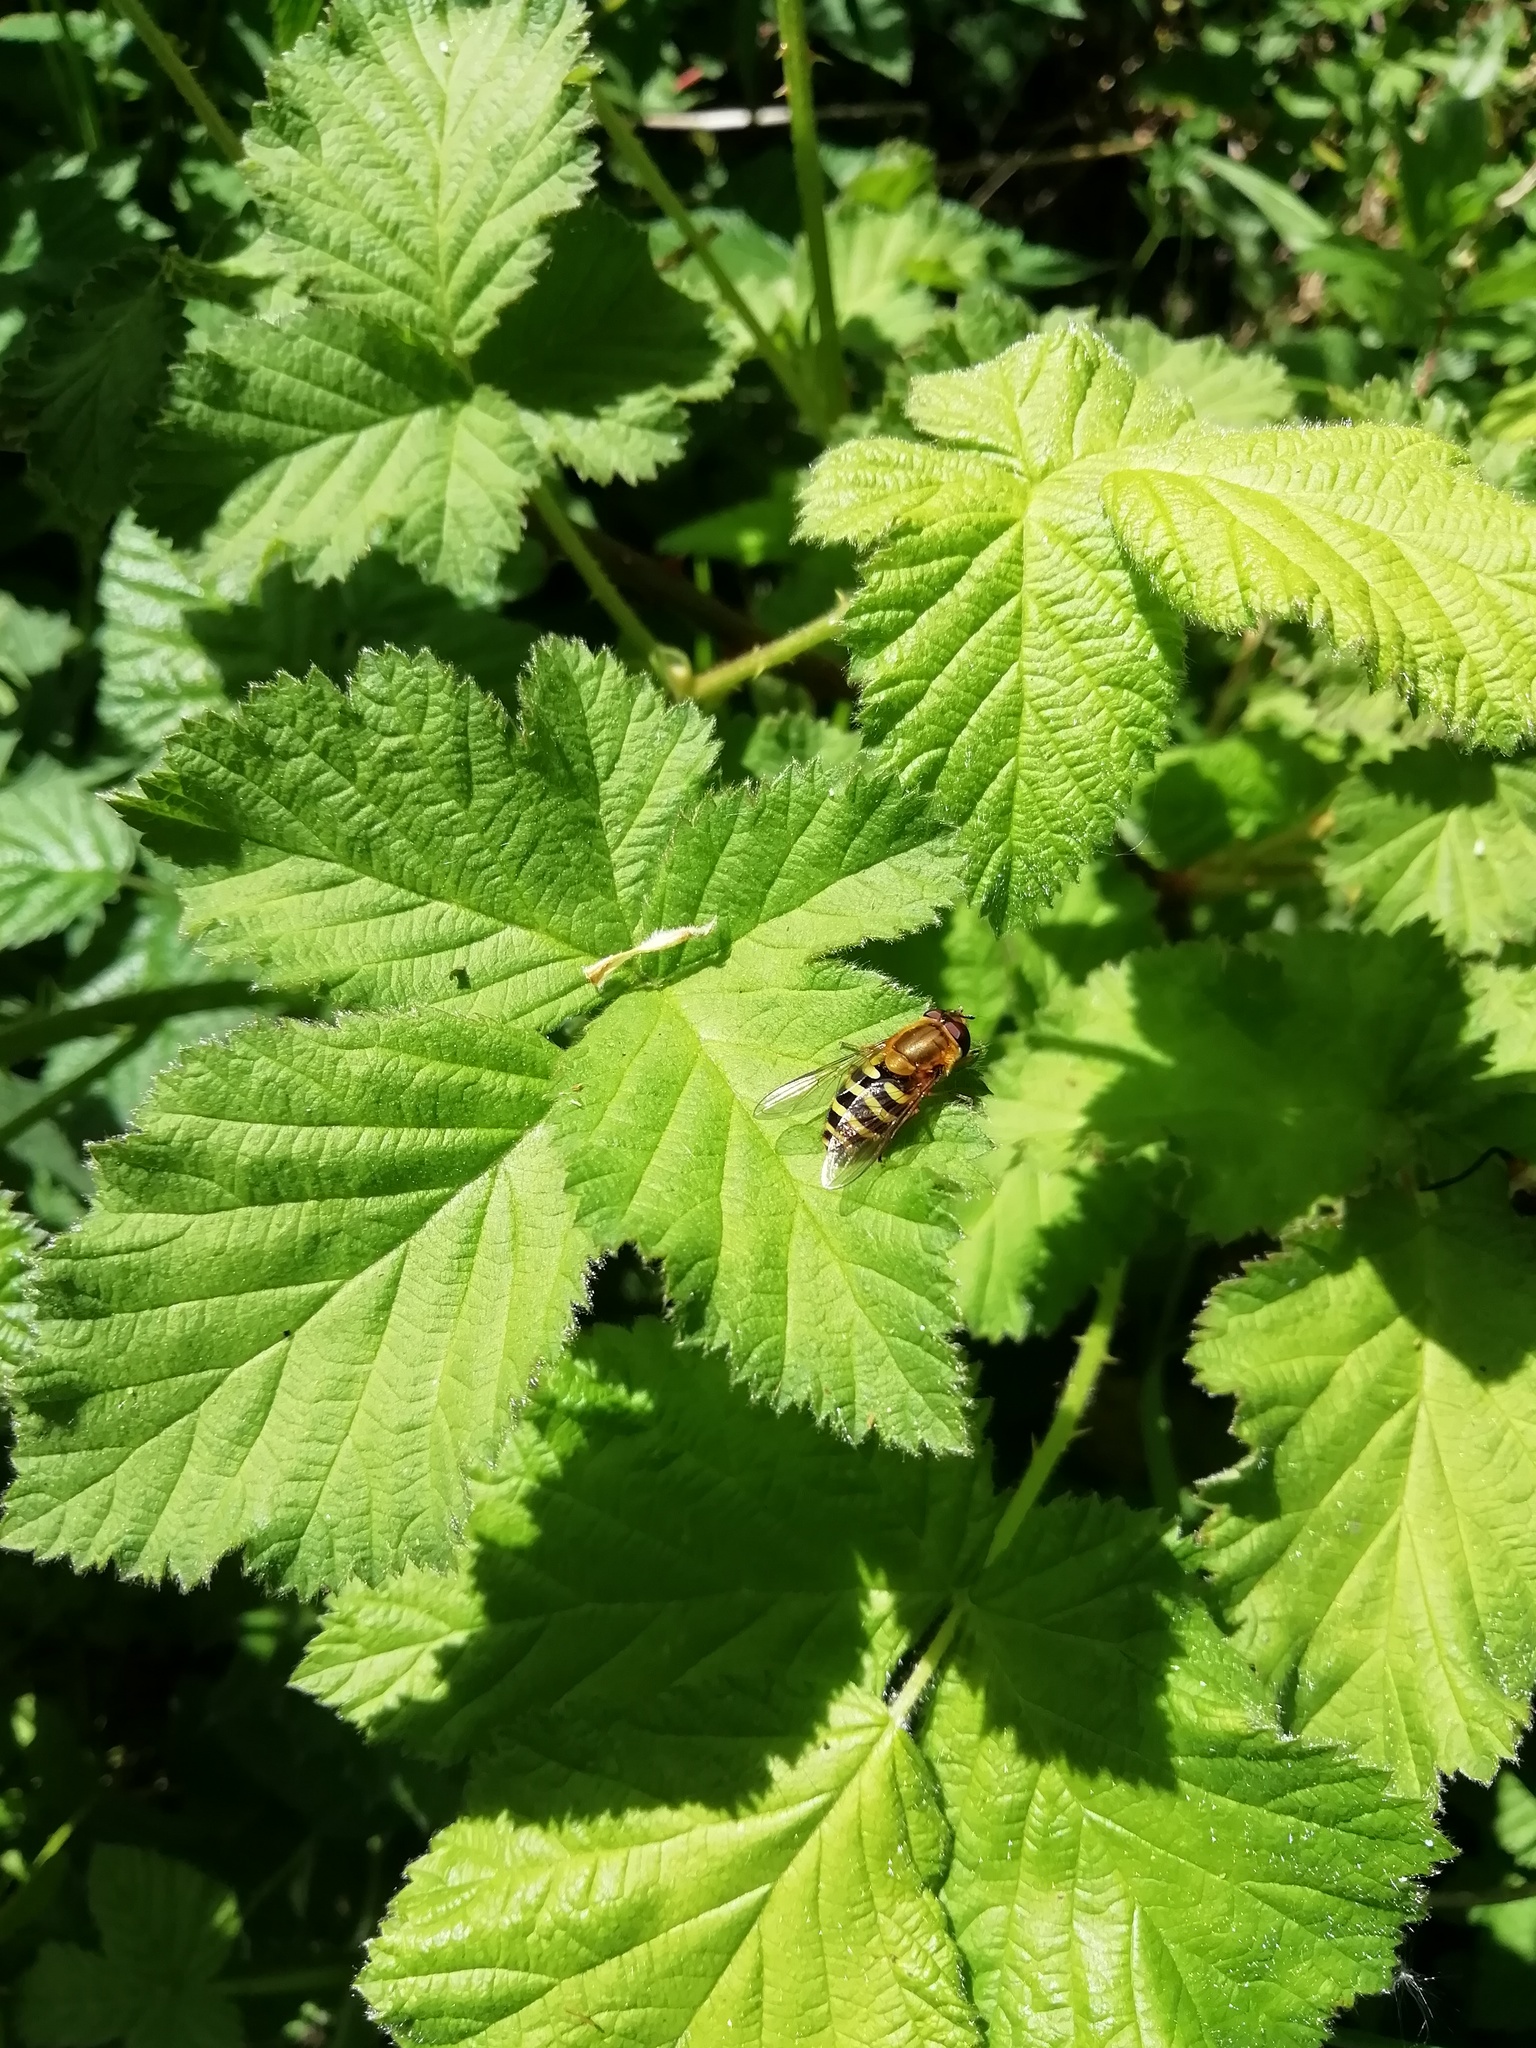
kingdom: Animalia
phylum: Arthropoda
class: Insecta
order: Diptera
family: Syrphidae
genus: Syrphus
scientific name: Syrphus
